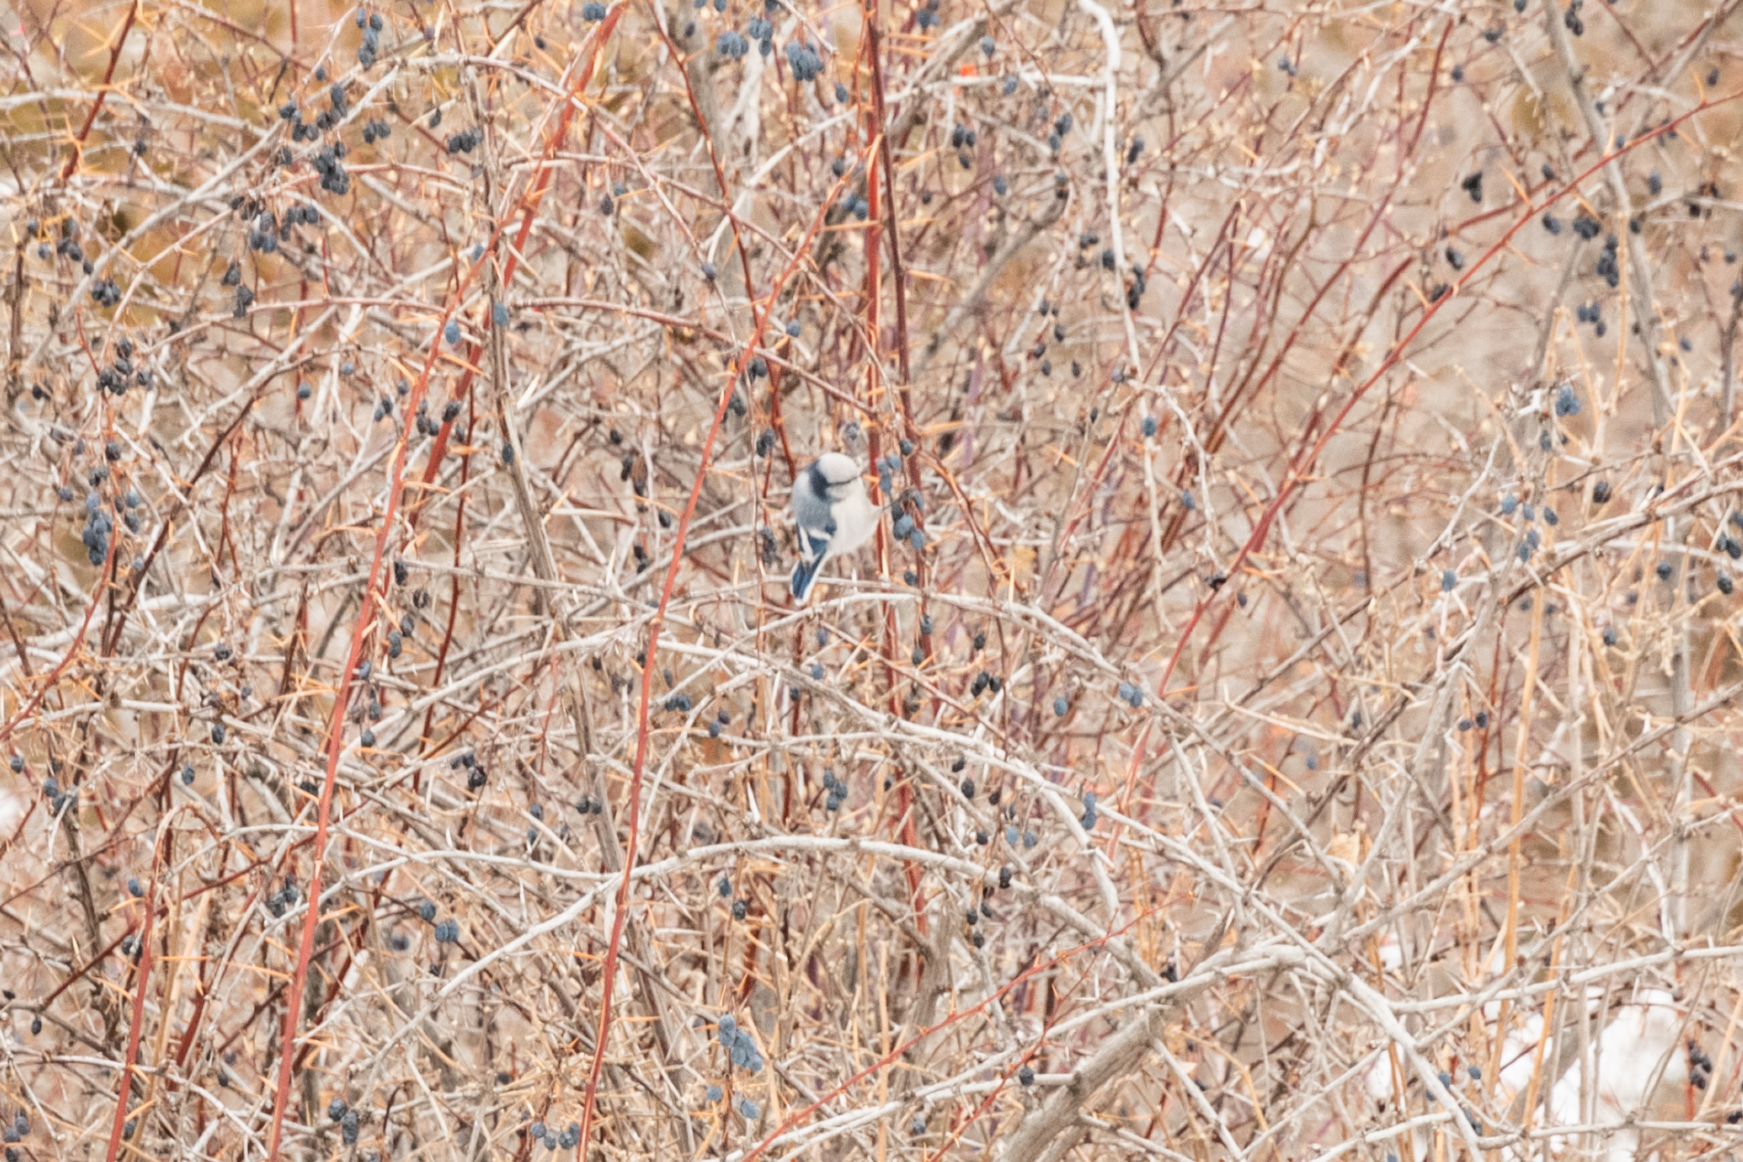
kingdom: Animalia
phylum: Chordata
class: Aves
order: Passeriformes
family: Paridae
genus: Cyanistes
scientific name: Cyanistes cyanus
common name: Azure tit
